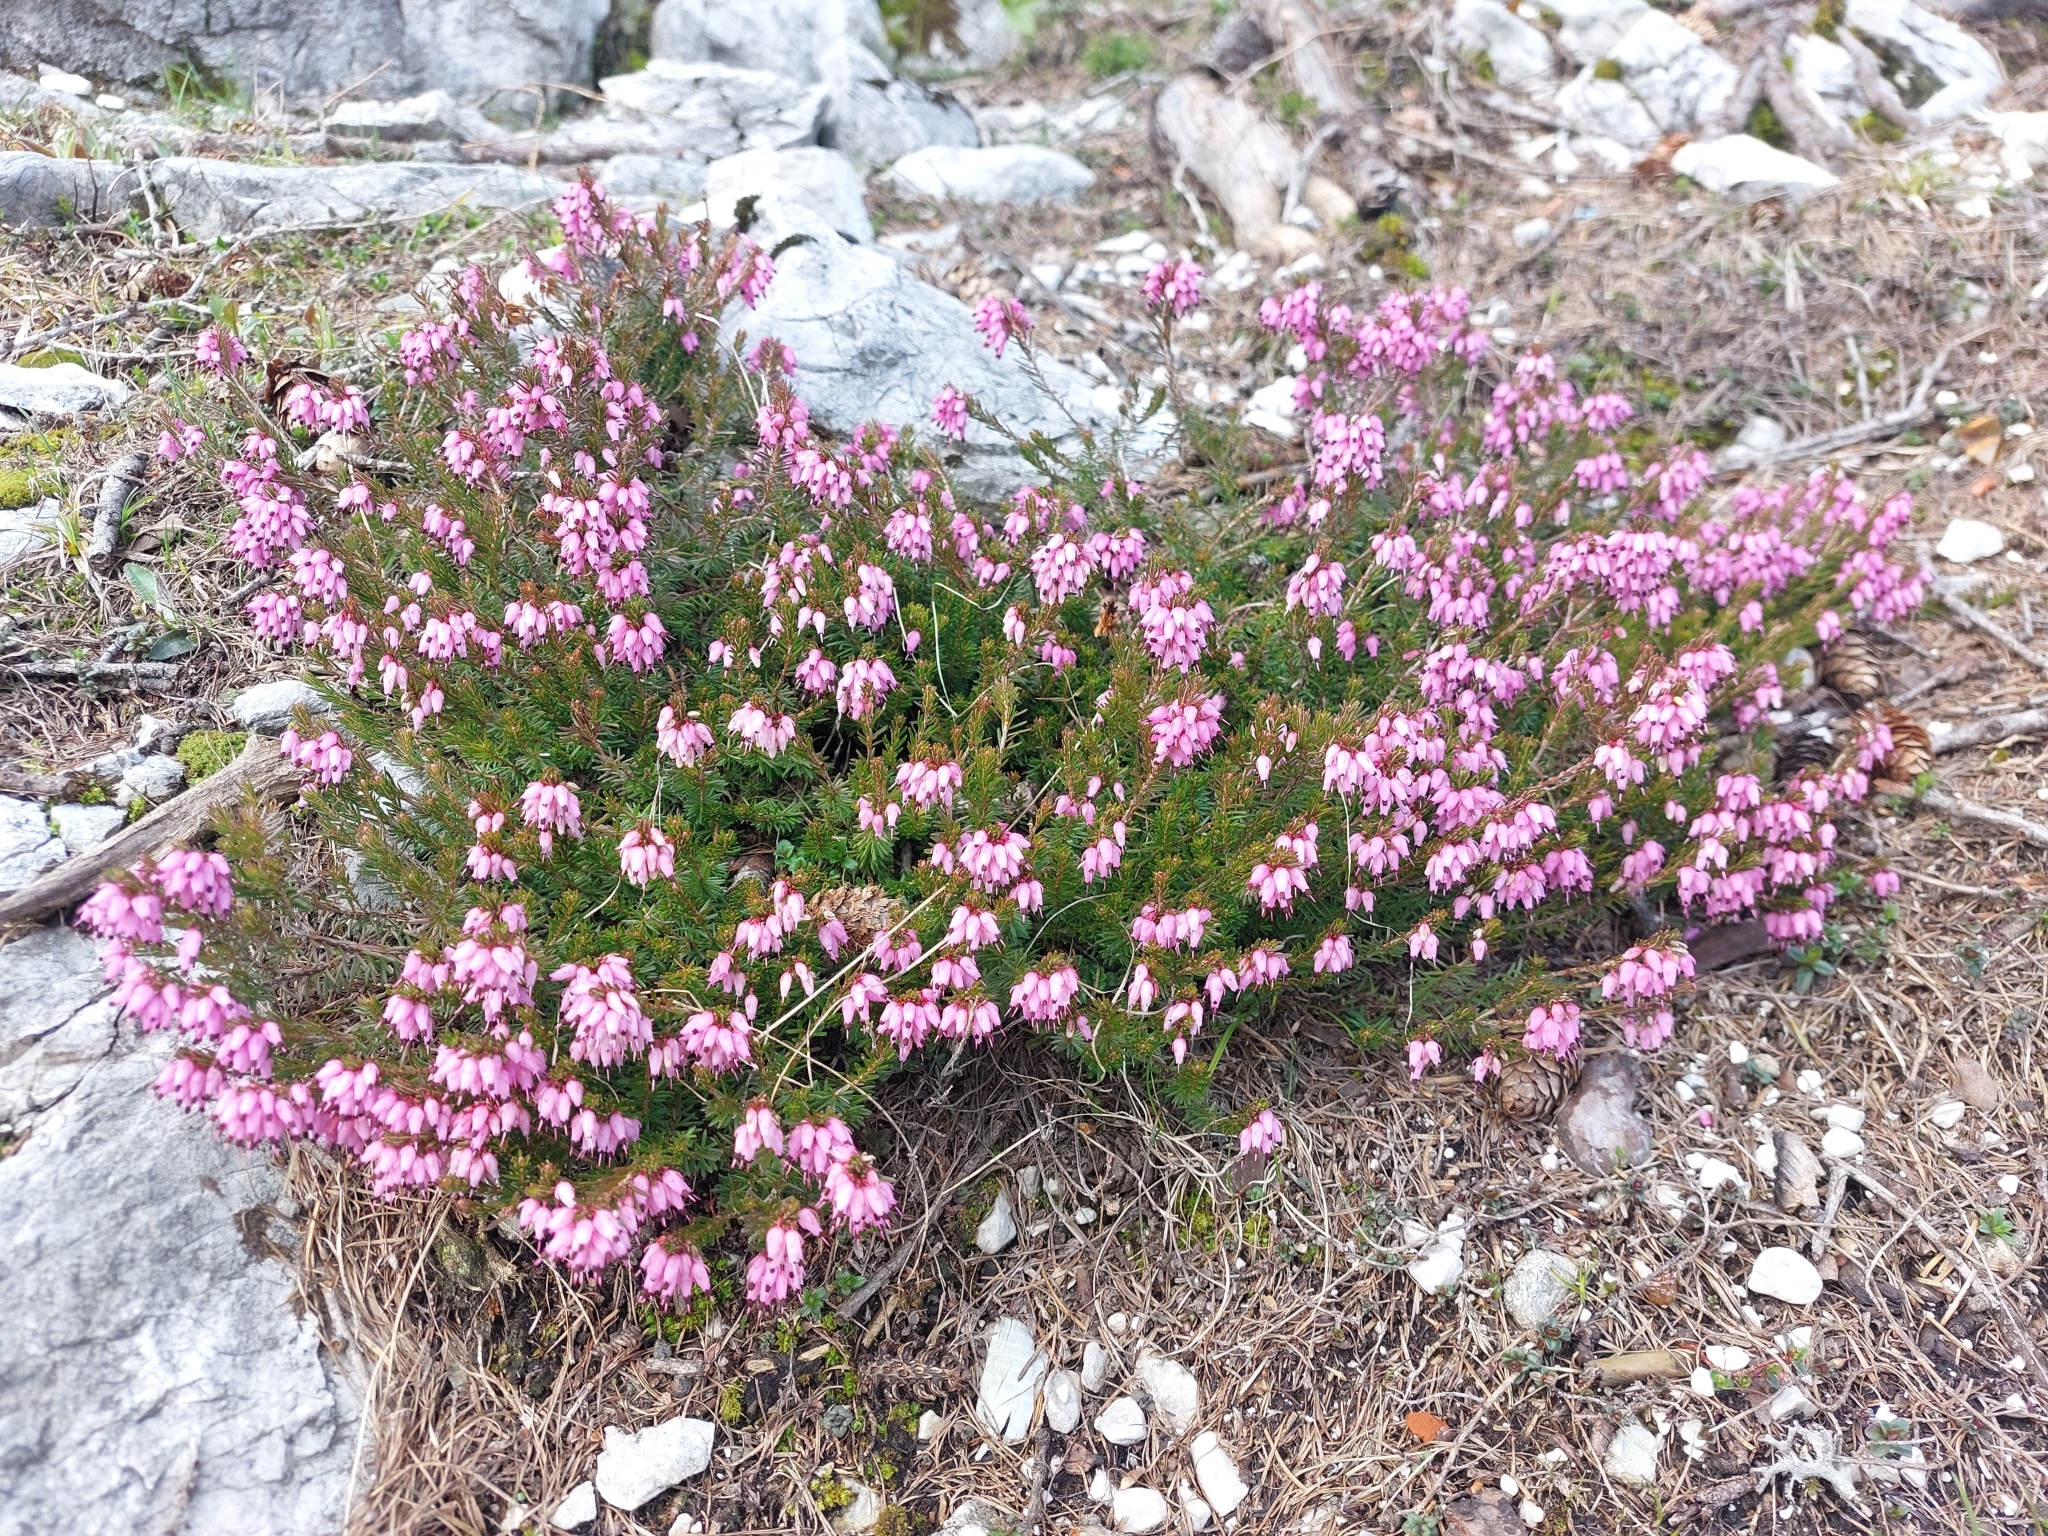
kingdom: Plantae
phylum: Tracheophyta
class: Magnoliopsida
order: Ericales
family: Ericaceae
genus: Erica
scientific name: Erica carnea
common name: Winter heath
